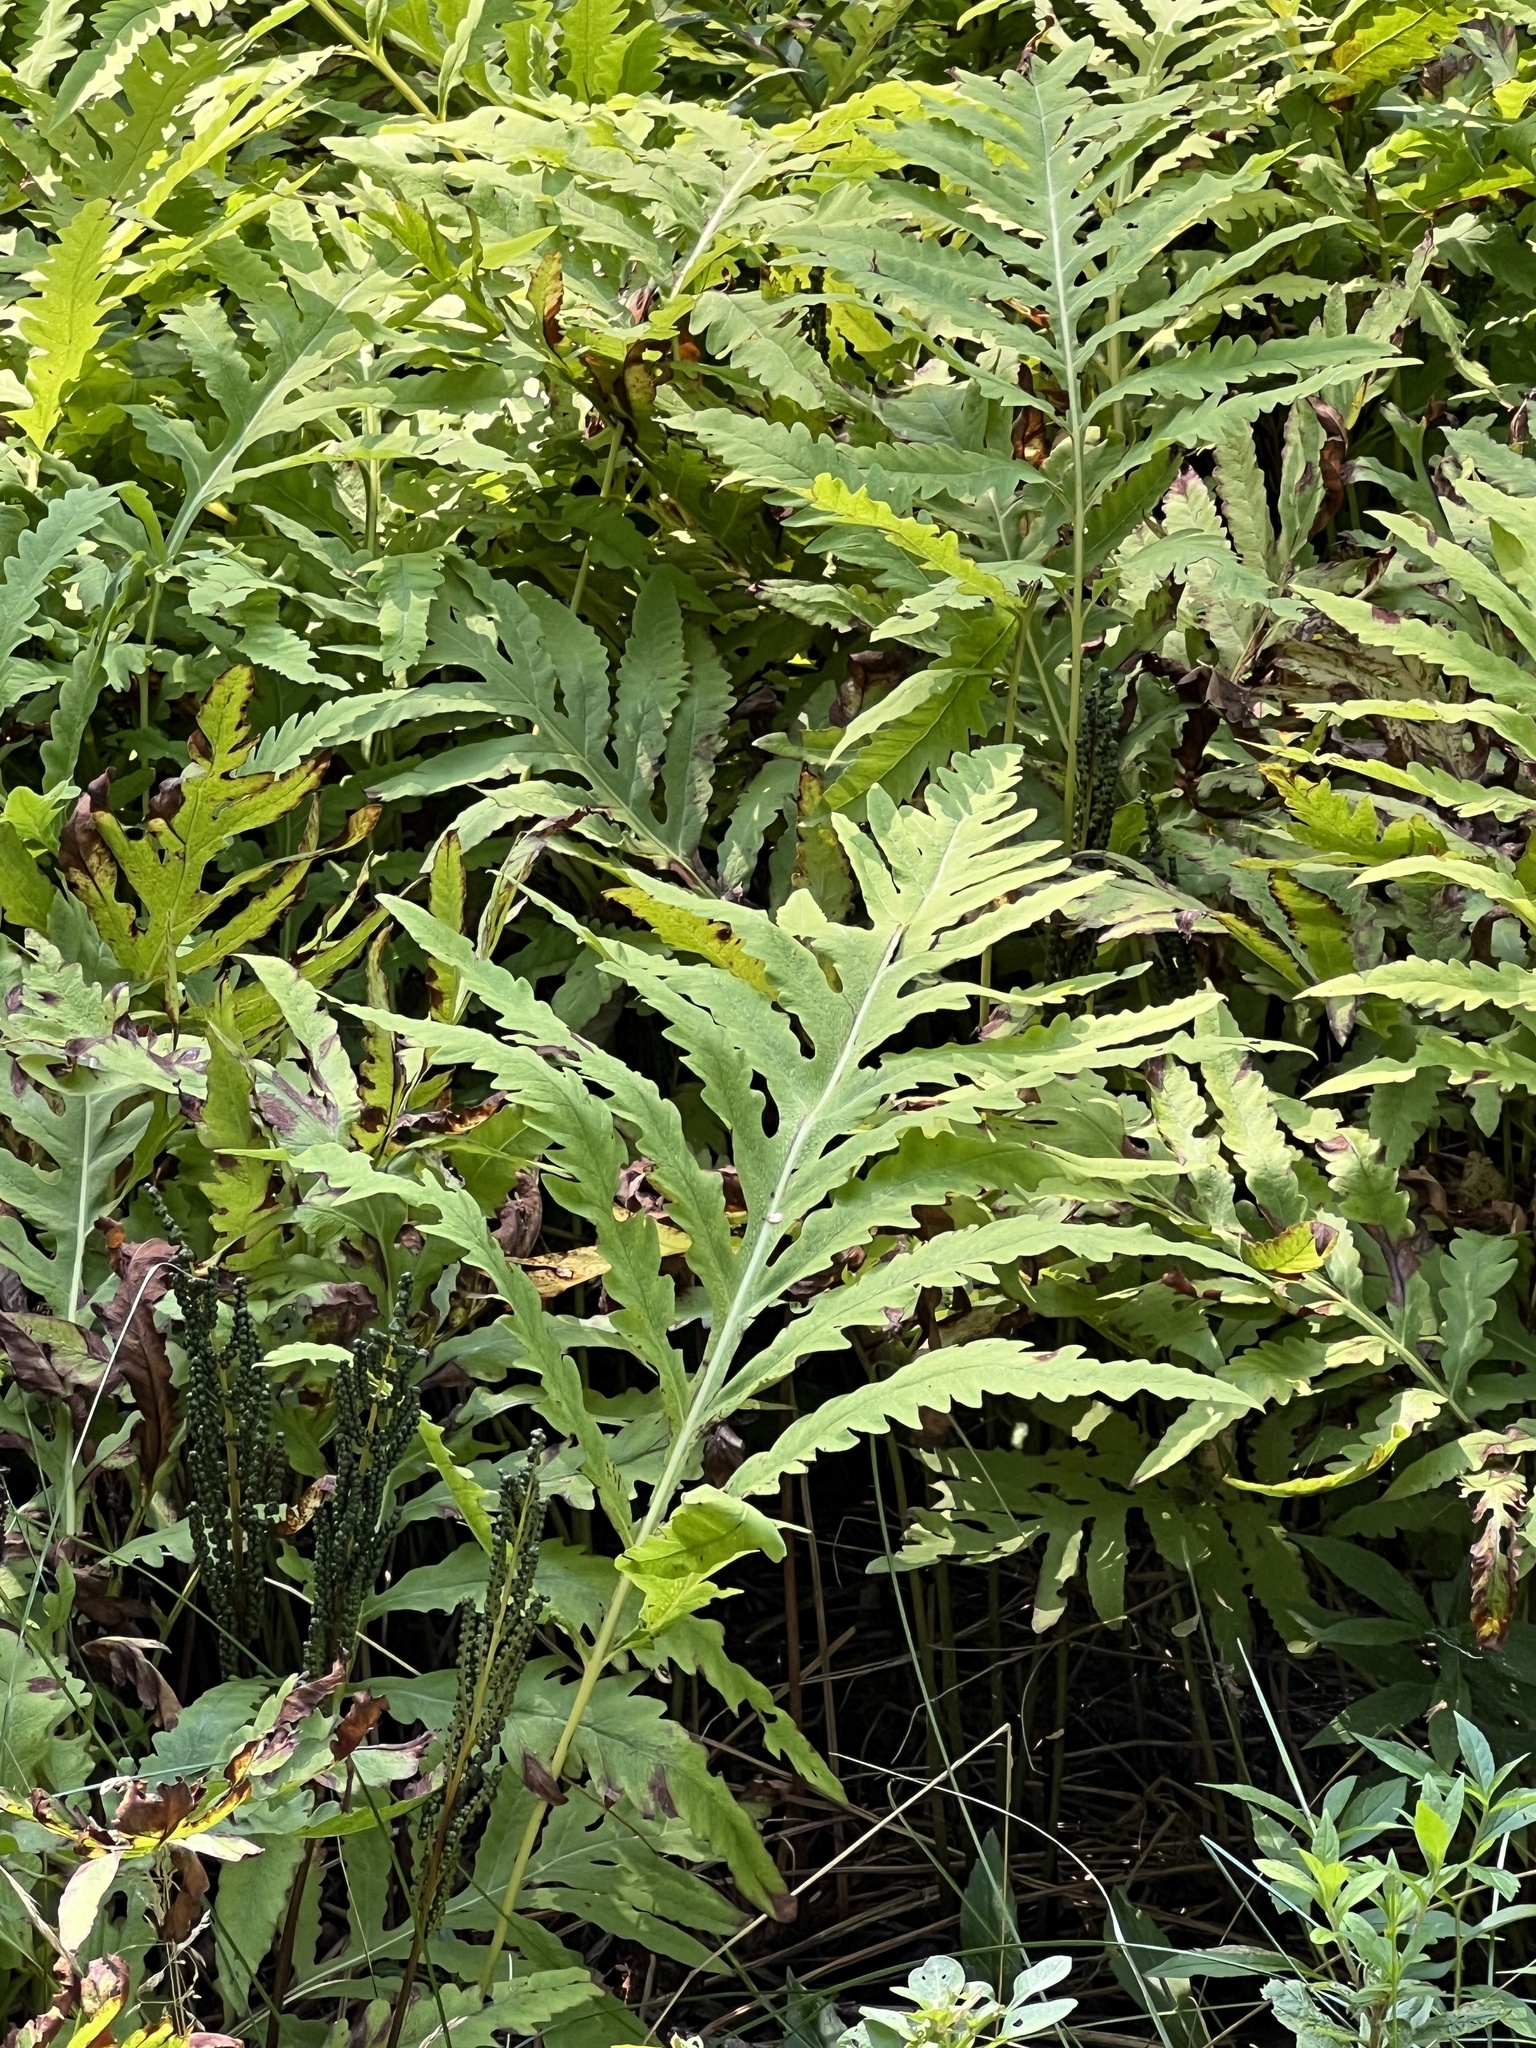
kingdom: Plantae
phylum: Tracheophyta
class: Polypodiopsida
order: Polypodiales
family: Onocleaceae
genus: Onoclea
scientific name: Onoclea sensibilis
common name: Sensitive fern
